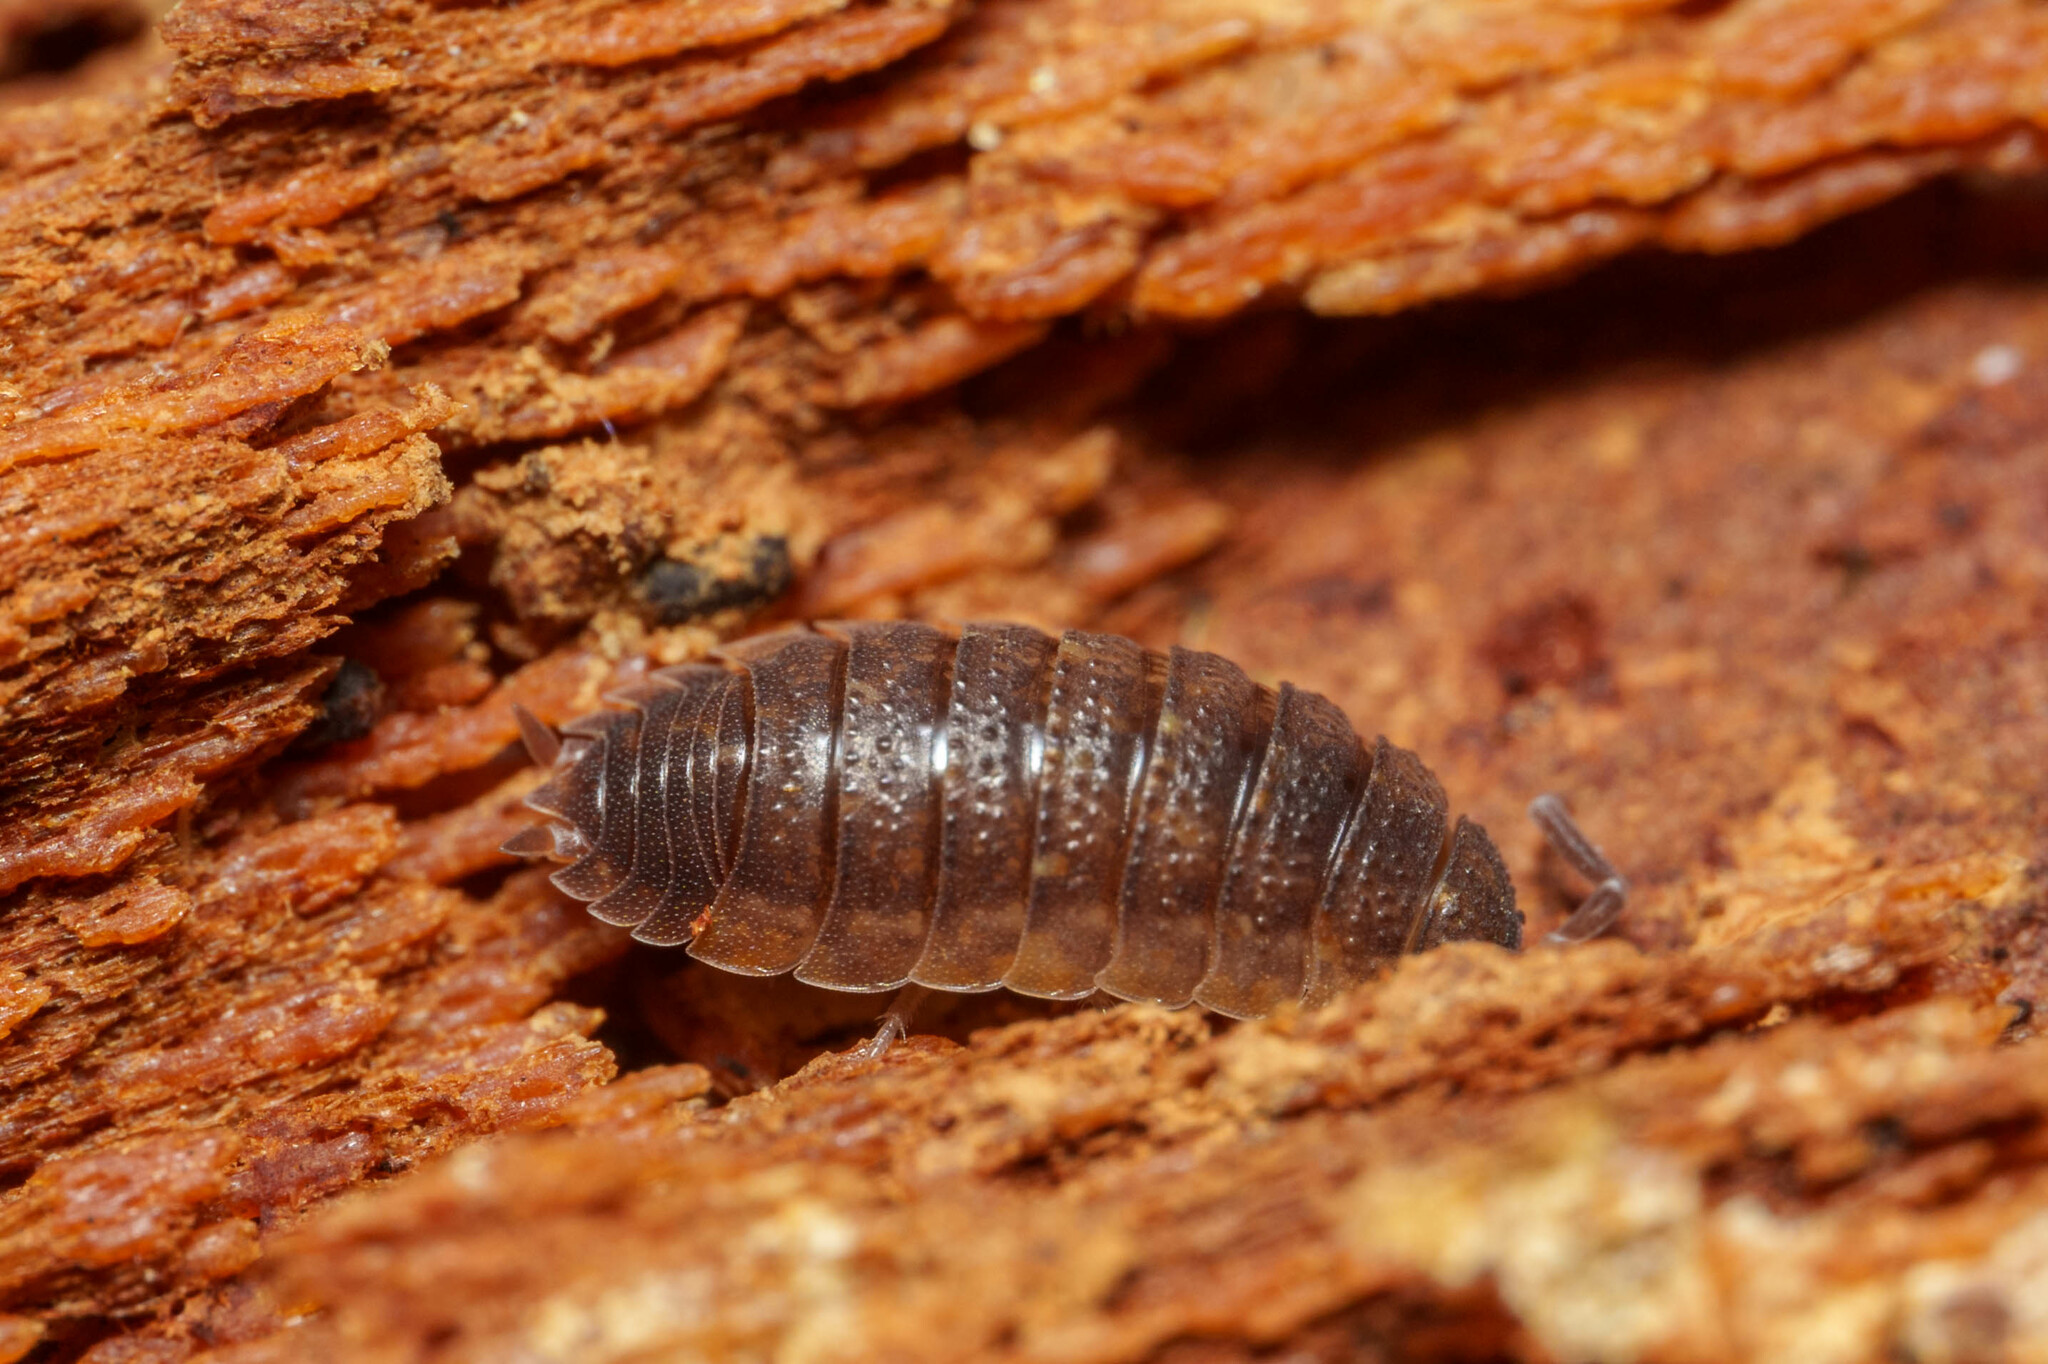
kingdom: Animalia
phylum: Arthropoda
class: Malacostraca
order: Isopoda
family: Porcellionidae
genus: Porcellio
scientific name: Porcellio scaber
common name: Common rough woodlouse
